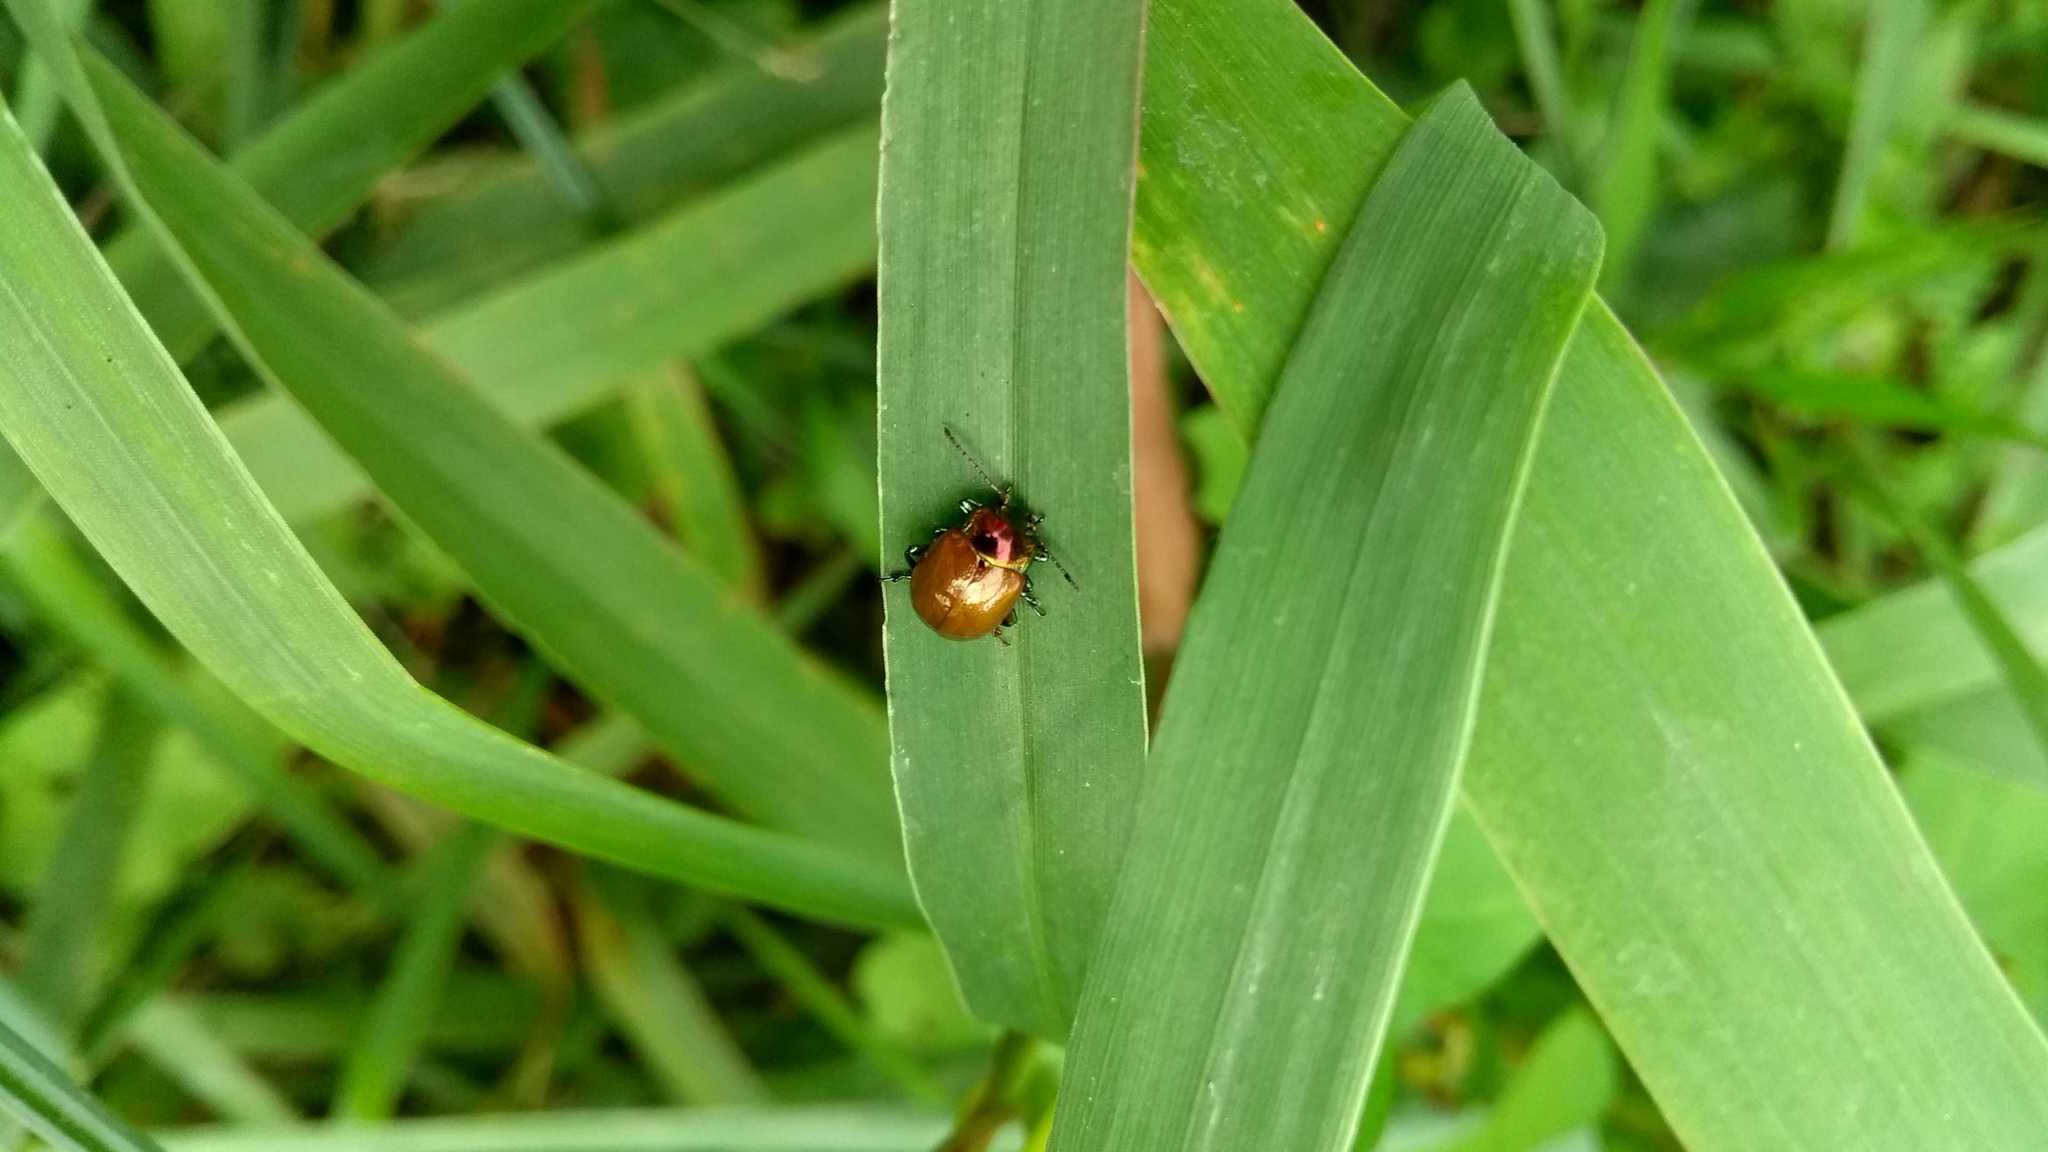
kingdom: Animalia
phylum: Arthropoda
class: Insecta
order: Coleoptera
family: Chrysomelidae
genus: Chrysomela
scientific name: Chrysomela polita
